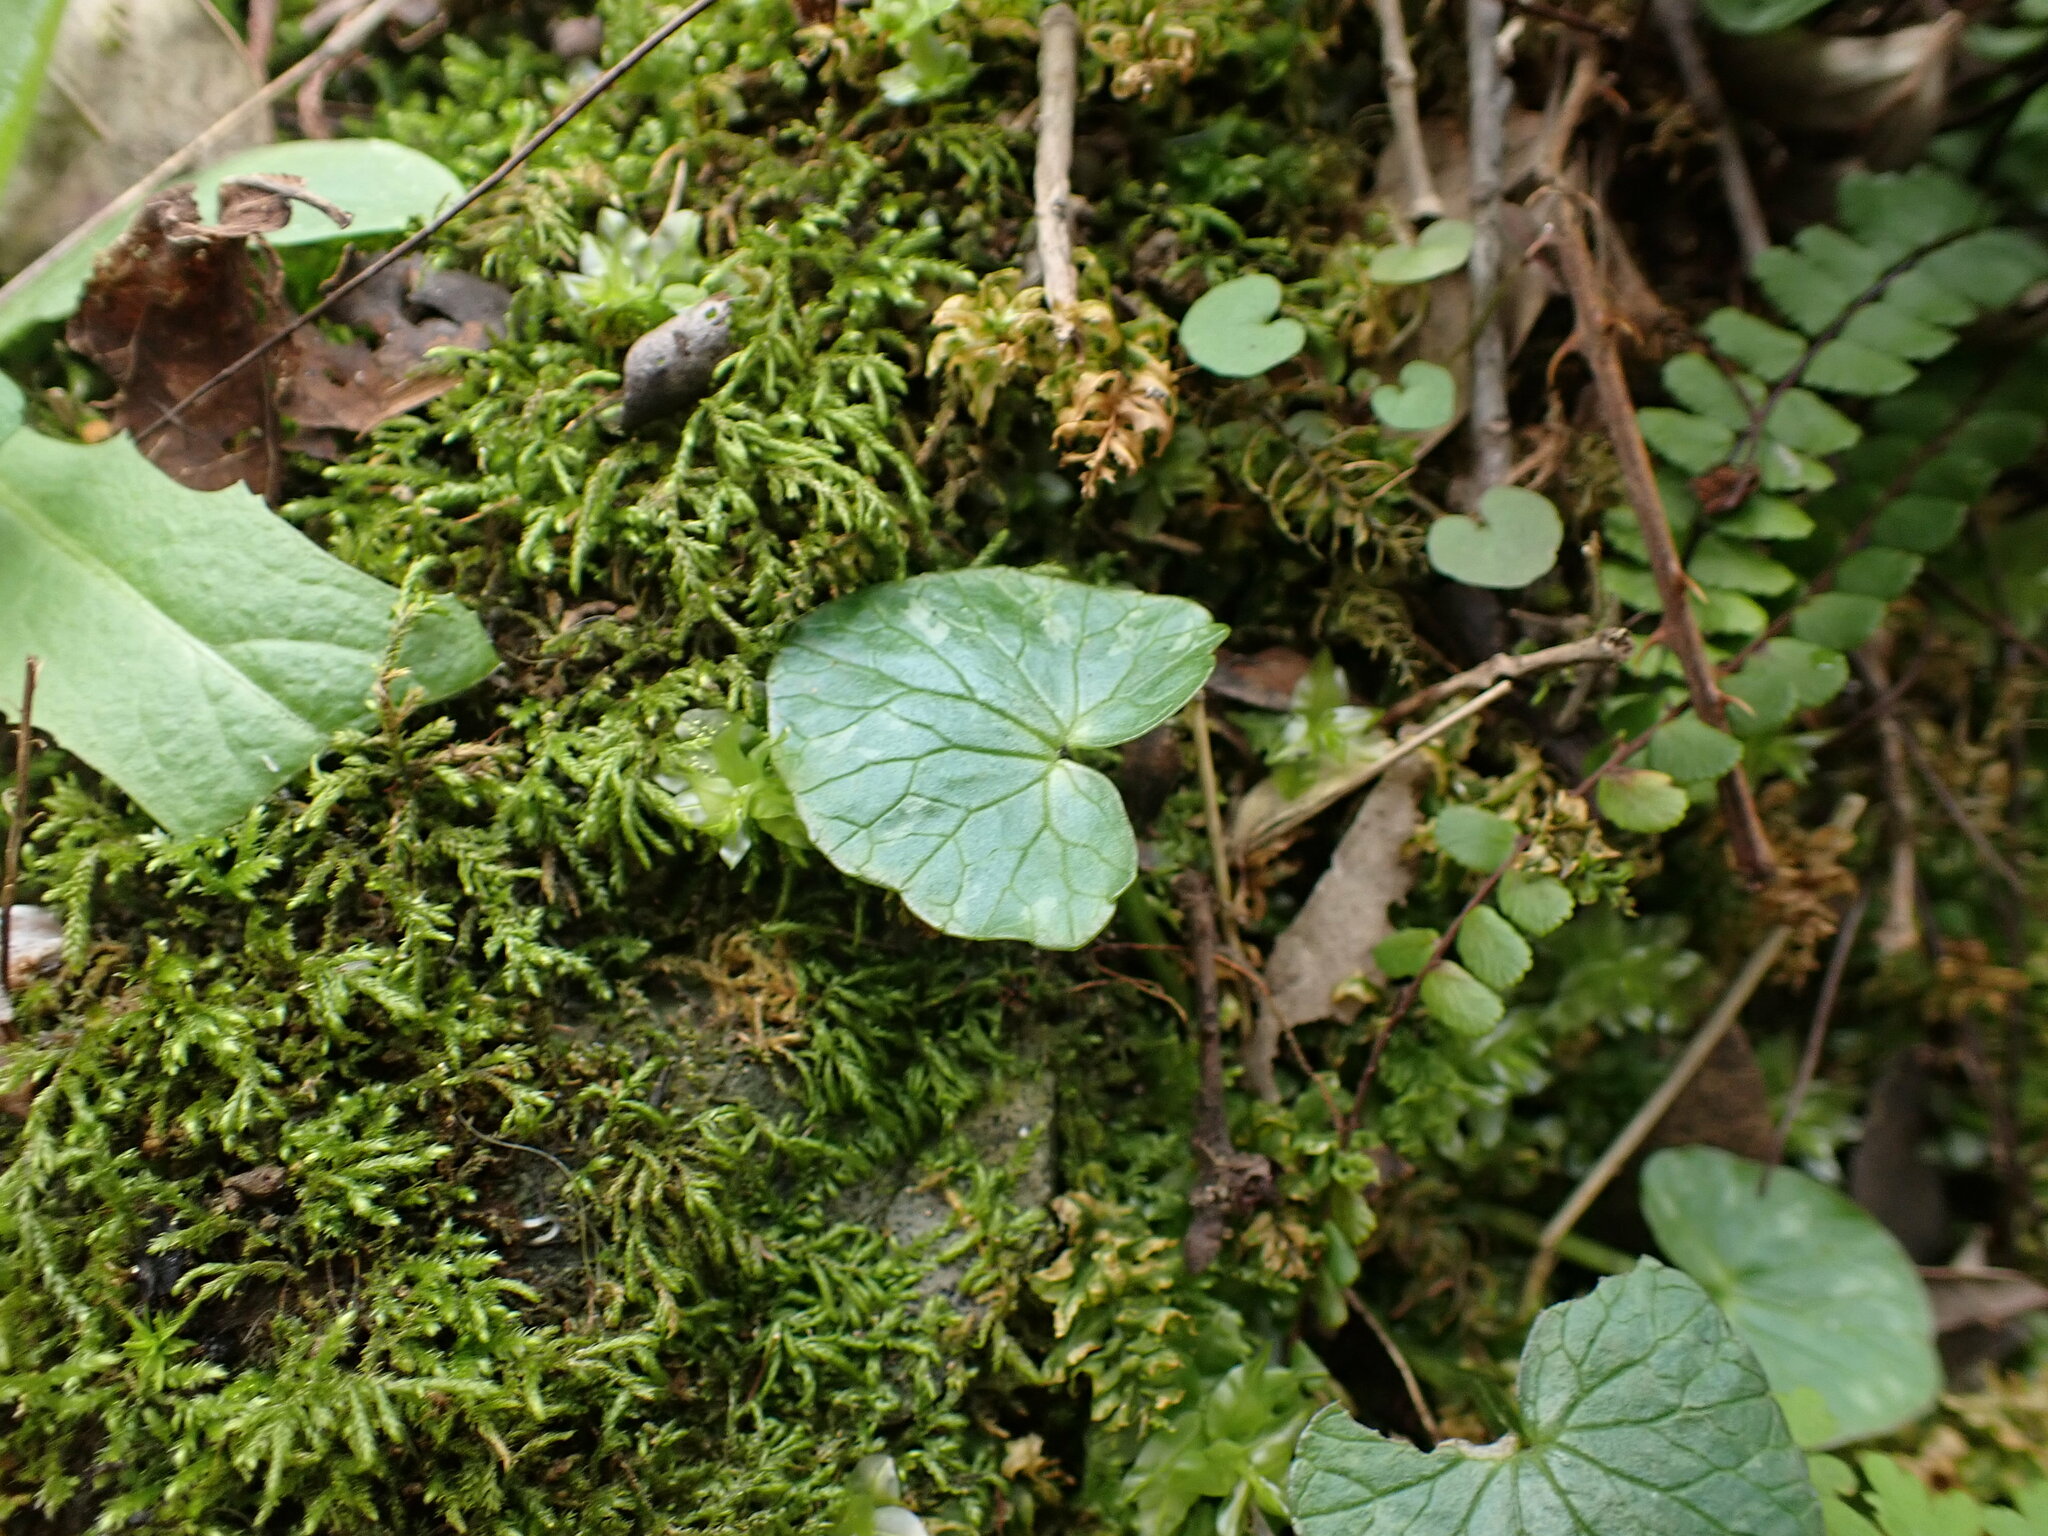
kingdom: Plantae
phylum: Tracheophyta
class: Magnoliopsida
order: Ranunculales
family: Ranunculaceae
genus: Ficaria
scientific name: Ficaria verna
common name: Lesser celandine
